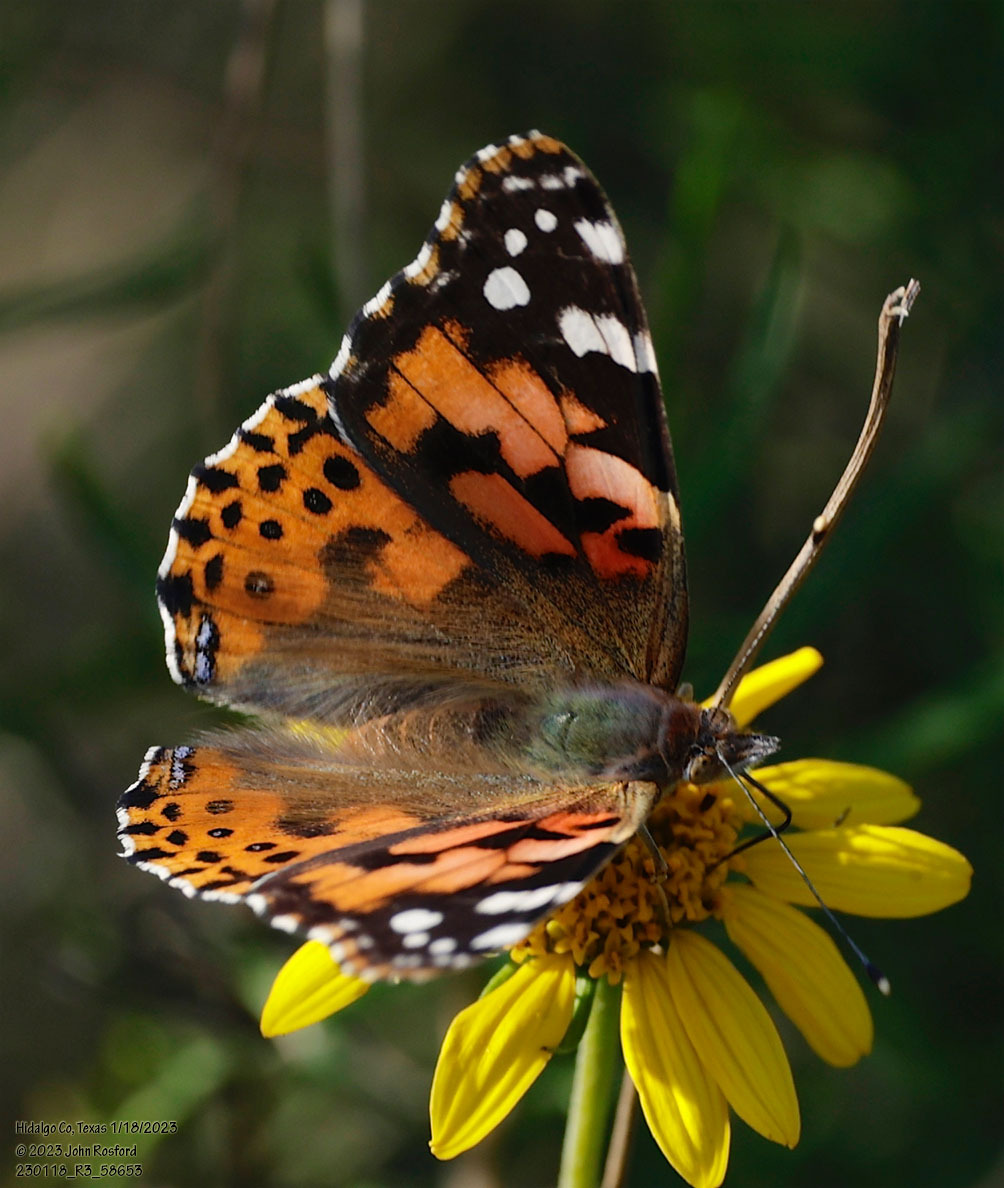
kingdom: Animalia
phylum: Arthropoda
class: Insecta
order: Lepidoptera
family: Nymphalidae
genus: Vanessa
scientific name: Vanessa cardui
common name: Painted lady
